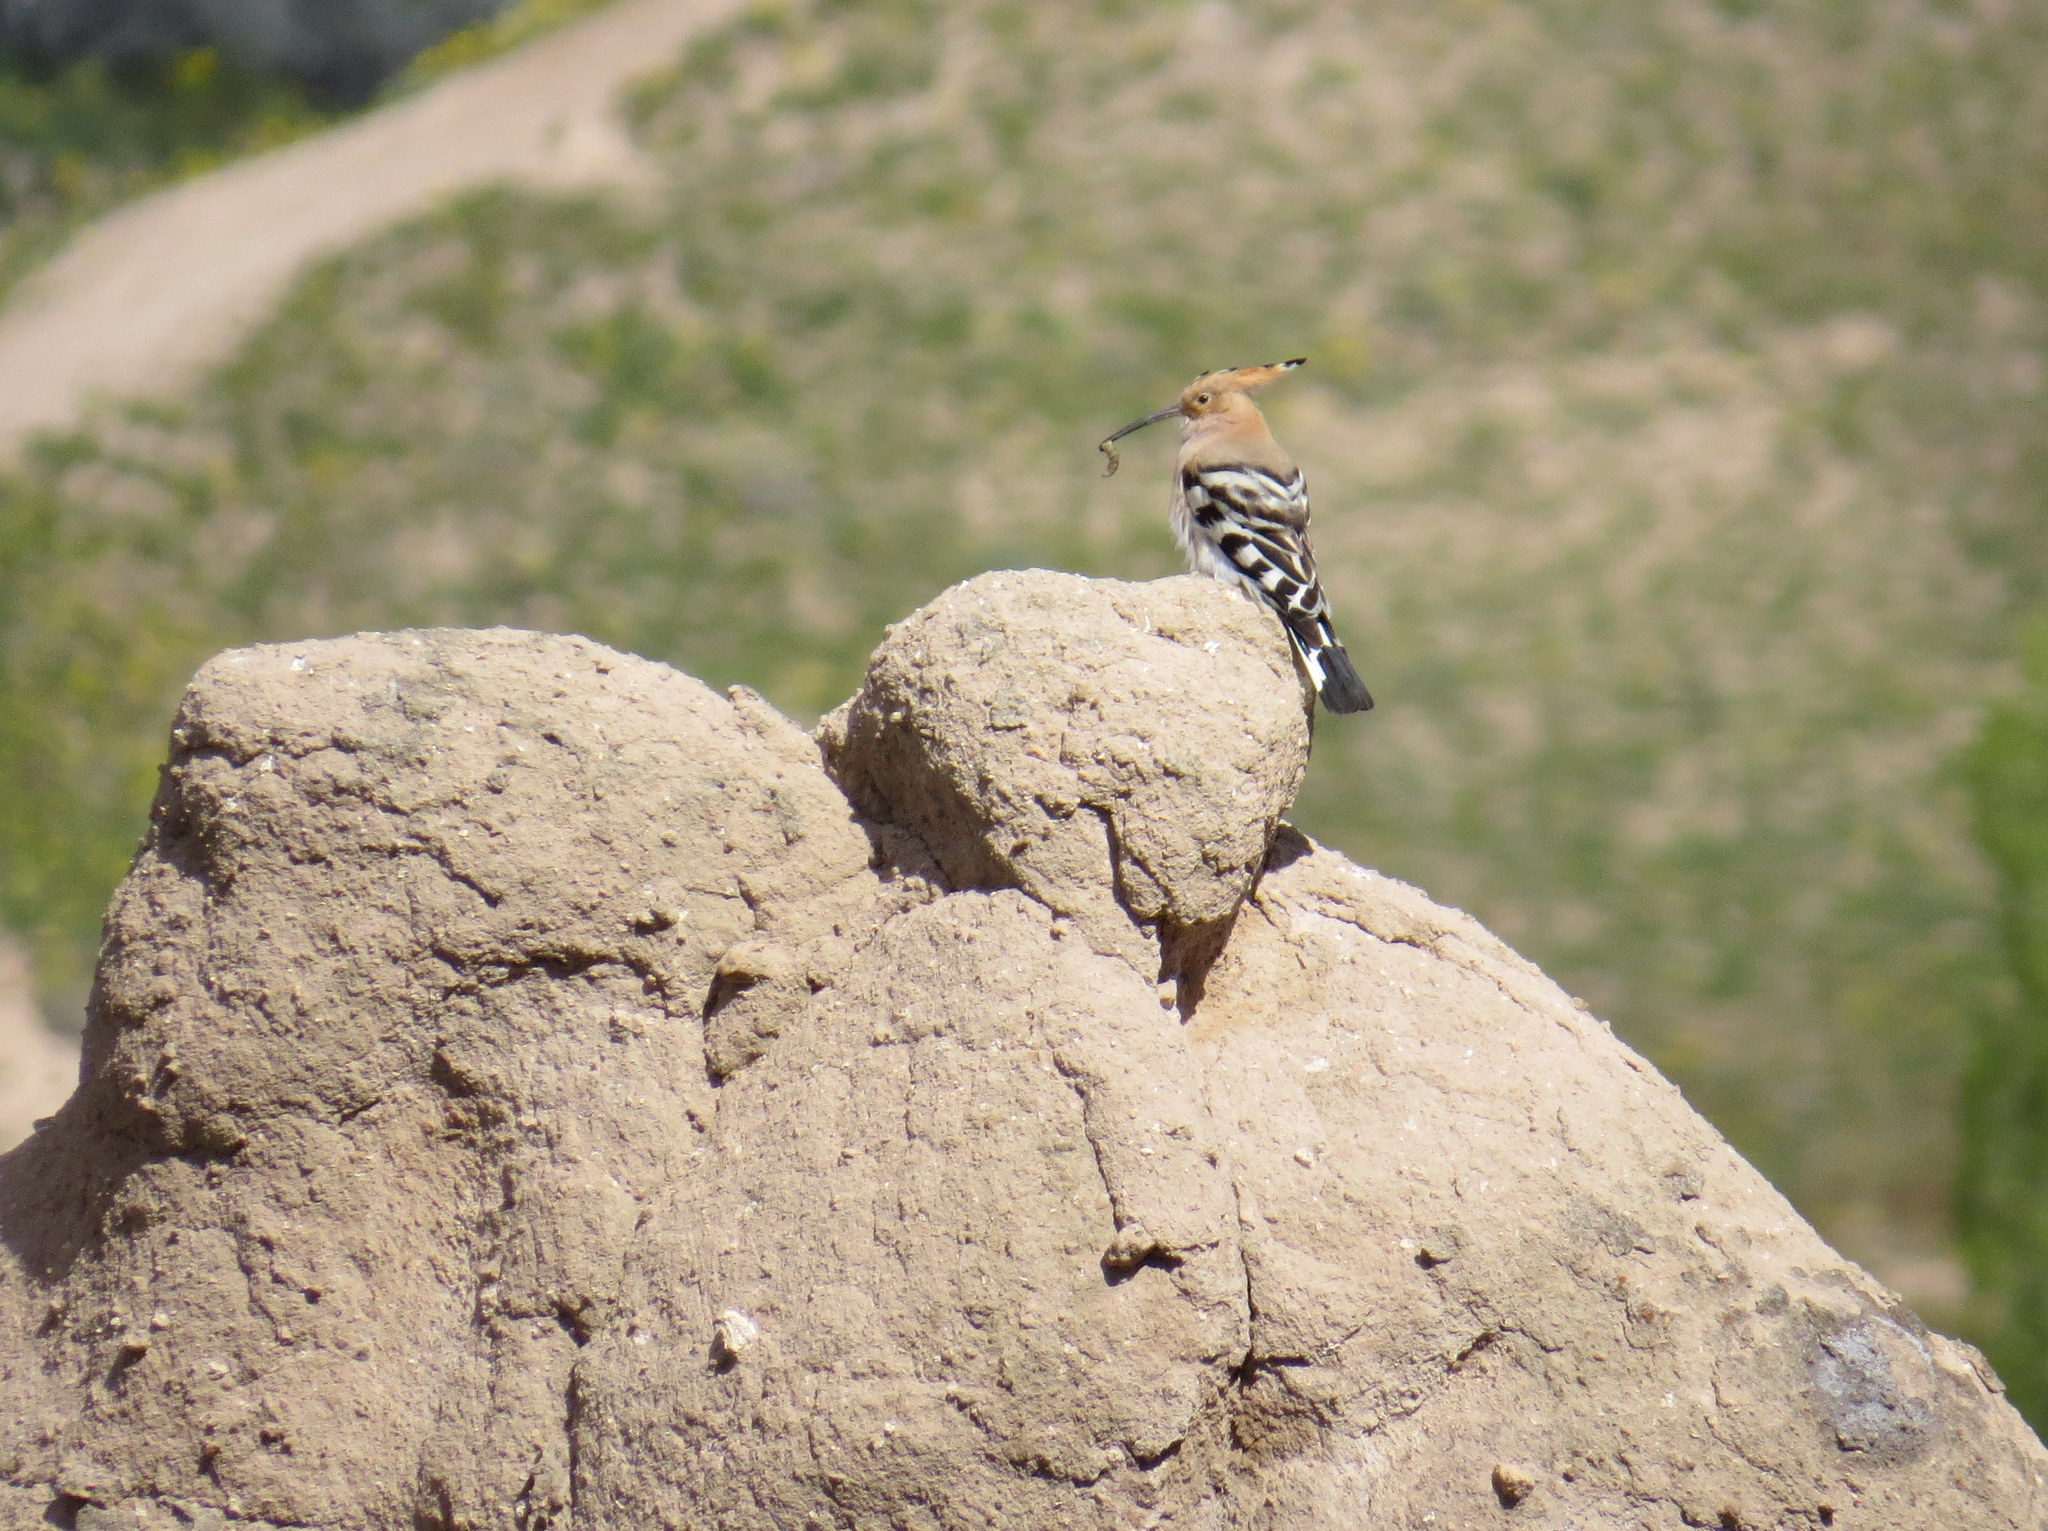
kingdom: Animalia
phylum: Chordata
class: Aves
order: Bucerotiformes
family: Upupidae
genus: Upupa
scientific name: Upupa epops
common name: Eurasian hoopoe
